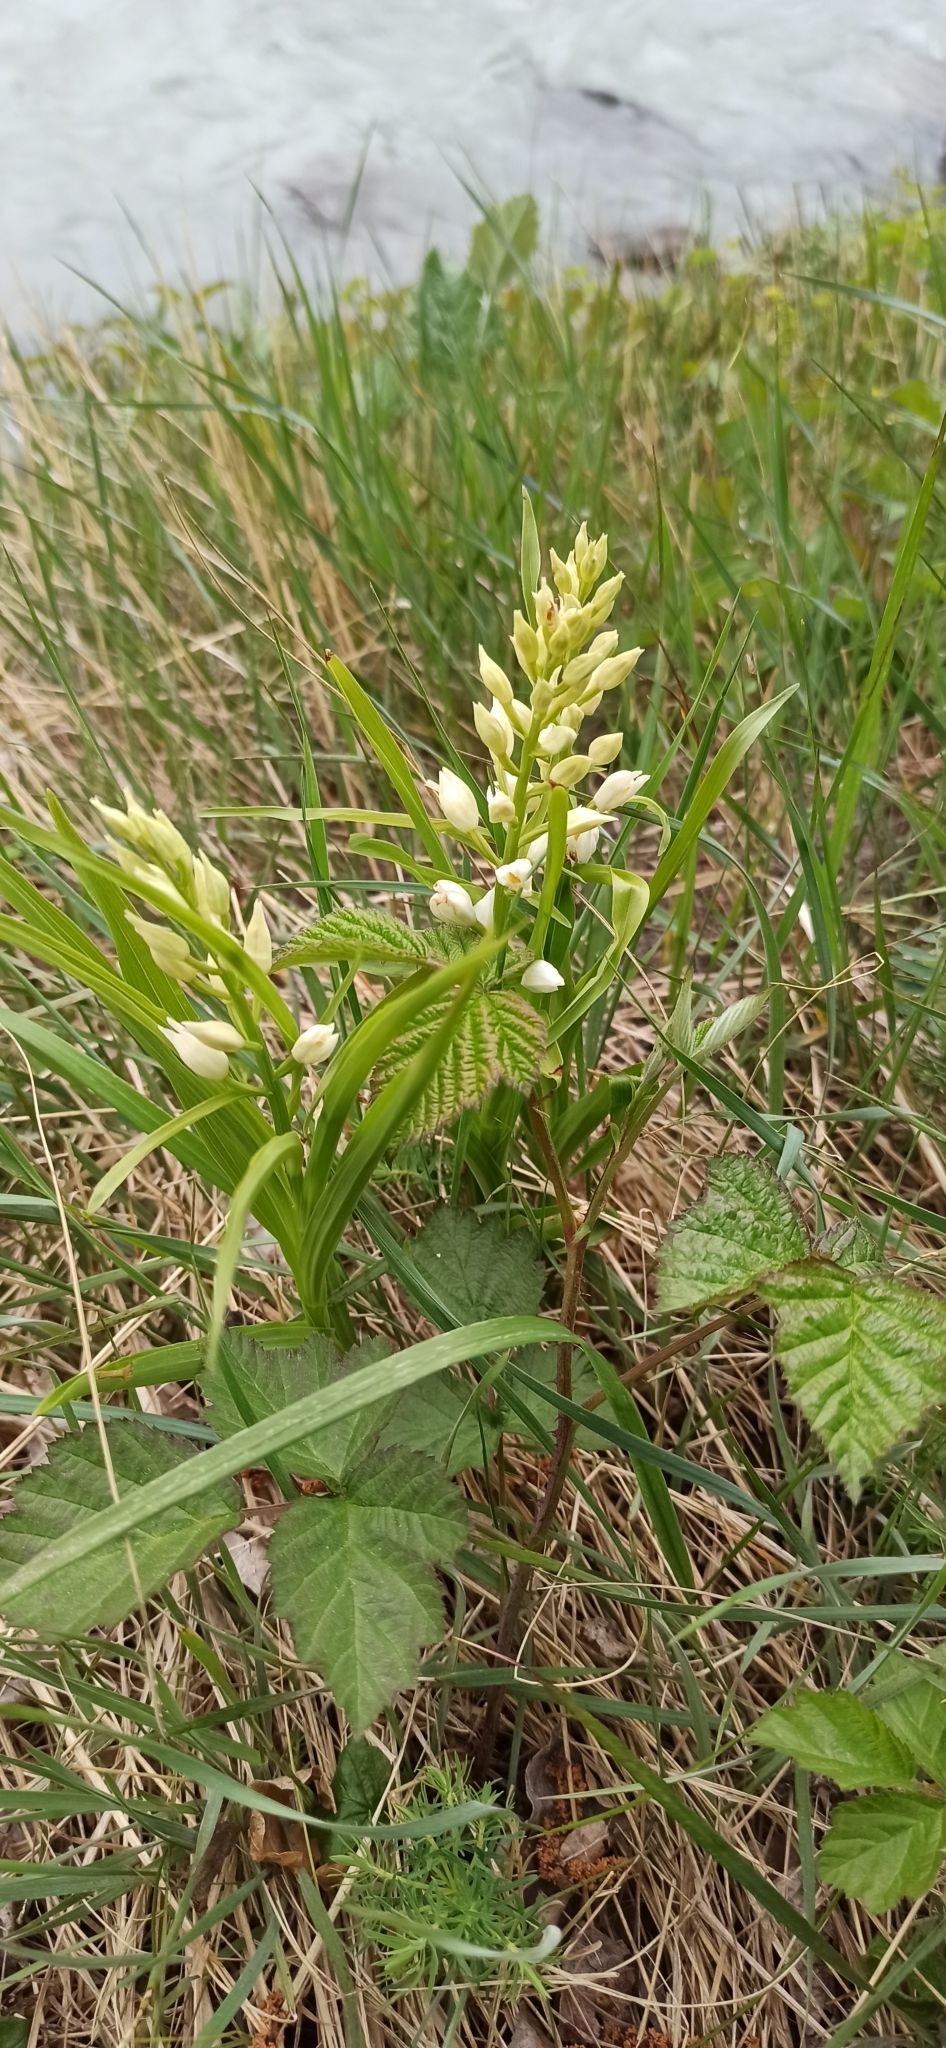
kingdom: Plantae
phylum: Tracheophyta
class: Liliopsida
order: Asparagales
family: Orchidaceae
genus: Cephalanthera
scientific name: Cephalanthera longifolia
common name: Narrow-leaved helleborine
